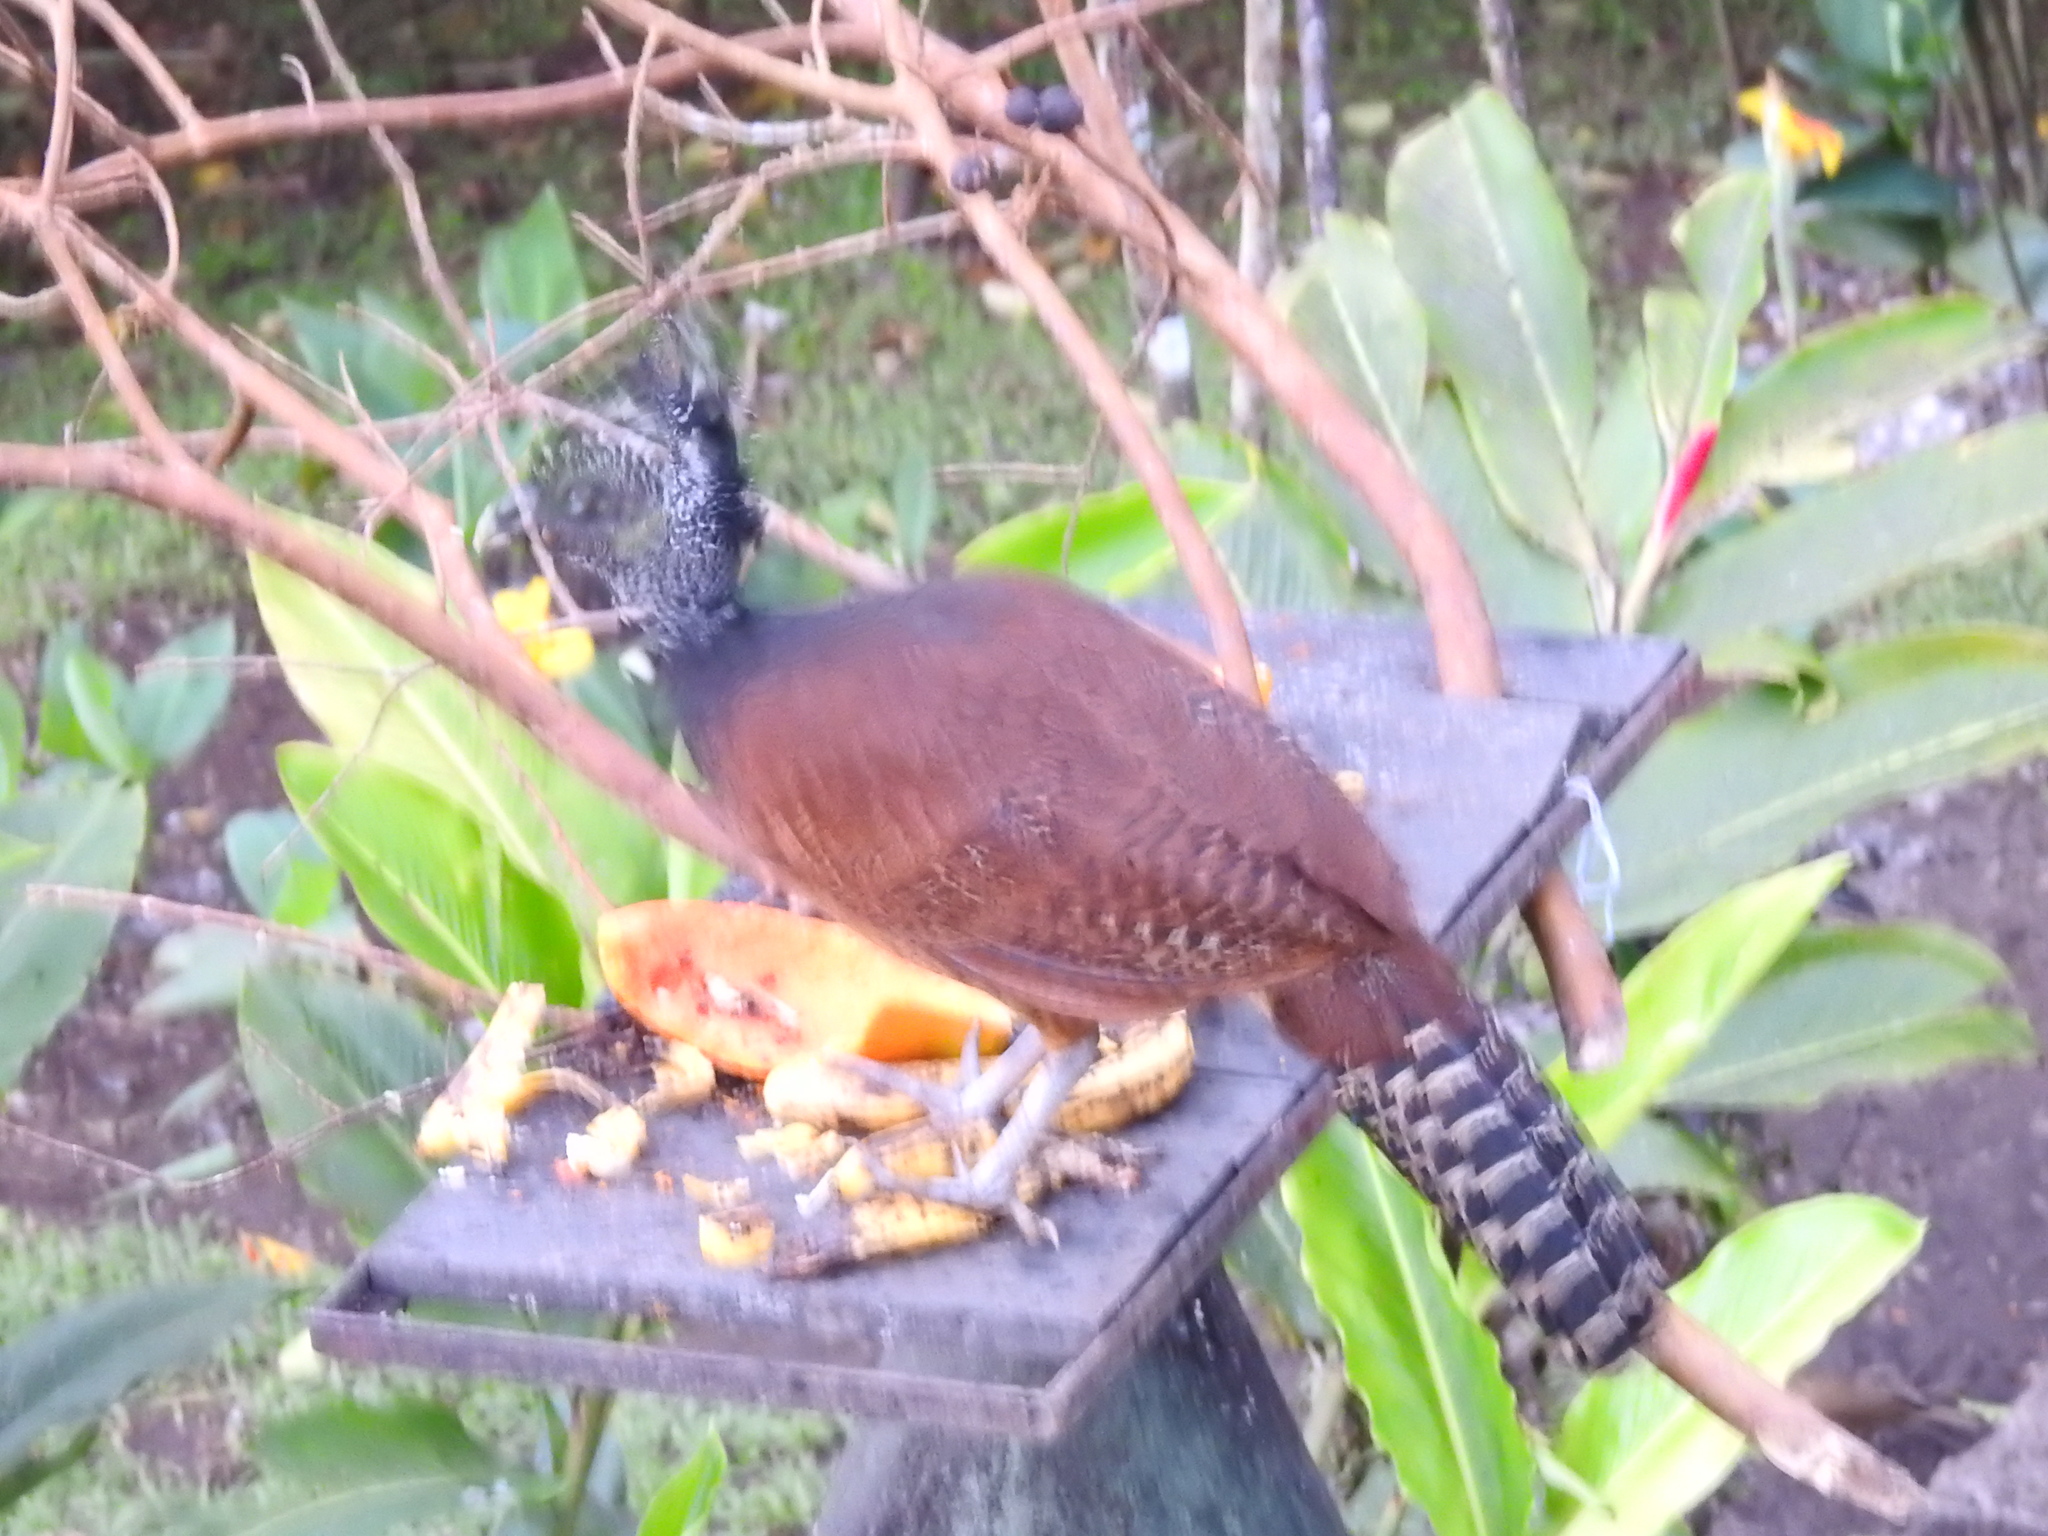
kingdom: Animalia
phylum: Chordata
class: Aves
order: Galliformes
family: Cracidae
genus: Crax
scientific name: Crax rubra
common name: Great curassow
